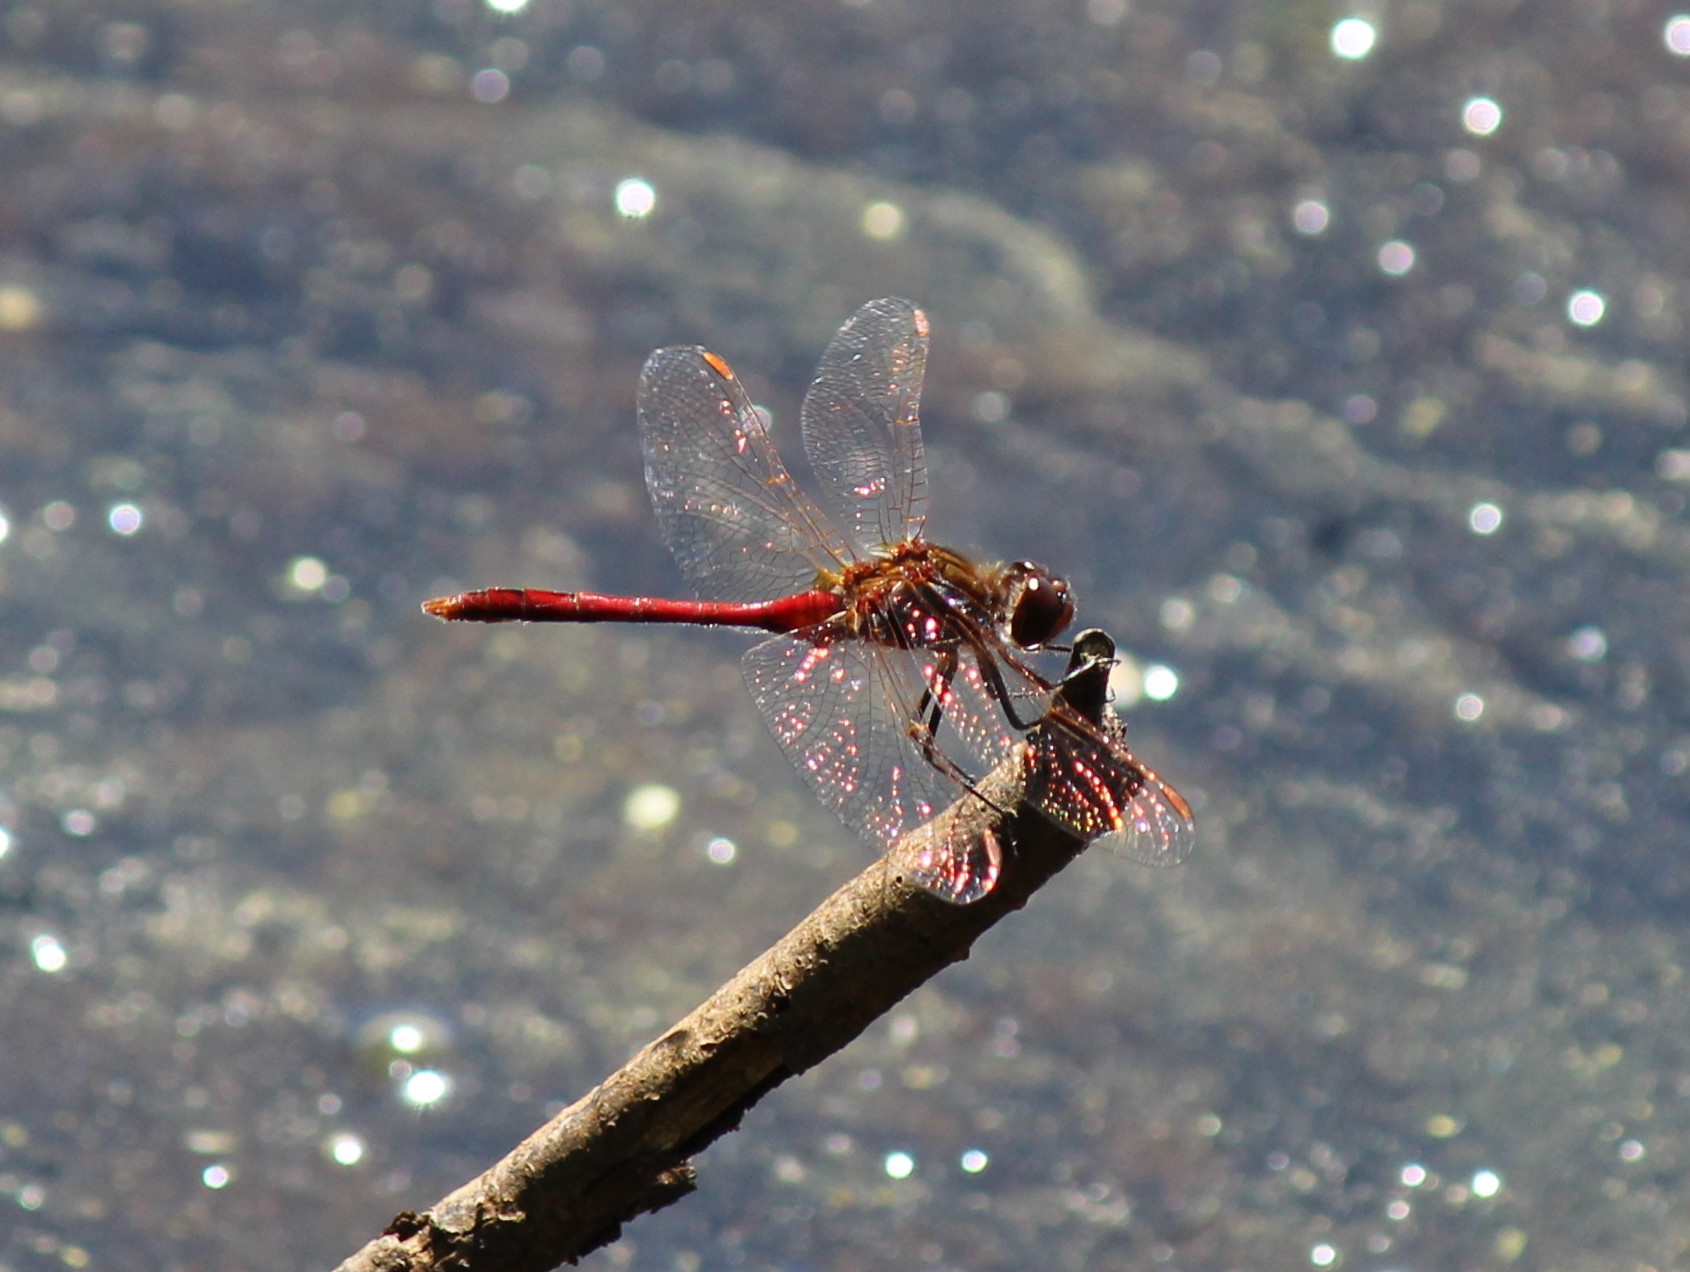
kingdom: Animalia
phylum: Arthropoda
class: Insecta
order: Odonata
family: Libellulidae
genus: Sympetrum
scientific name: Sympetrum costiferum
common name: Saffron-winged meadowhawk
